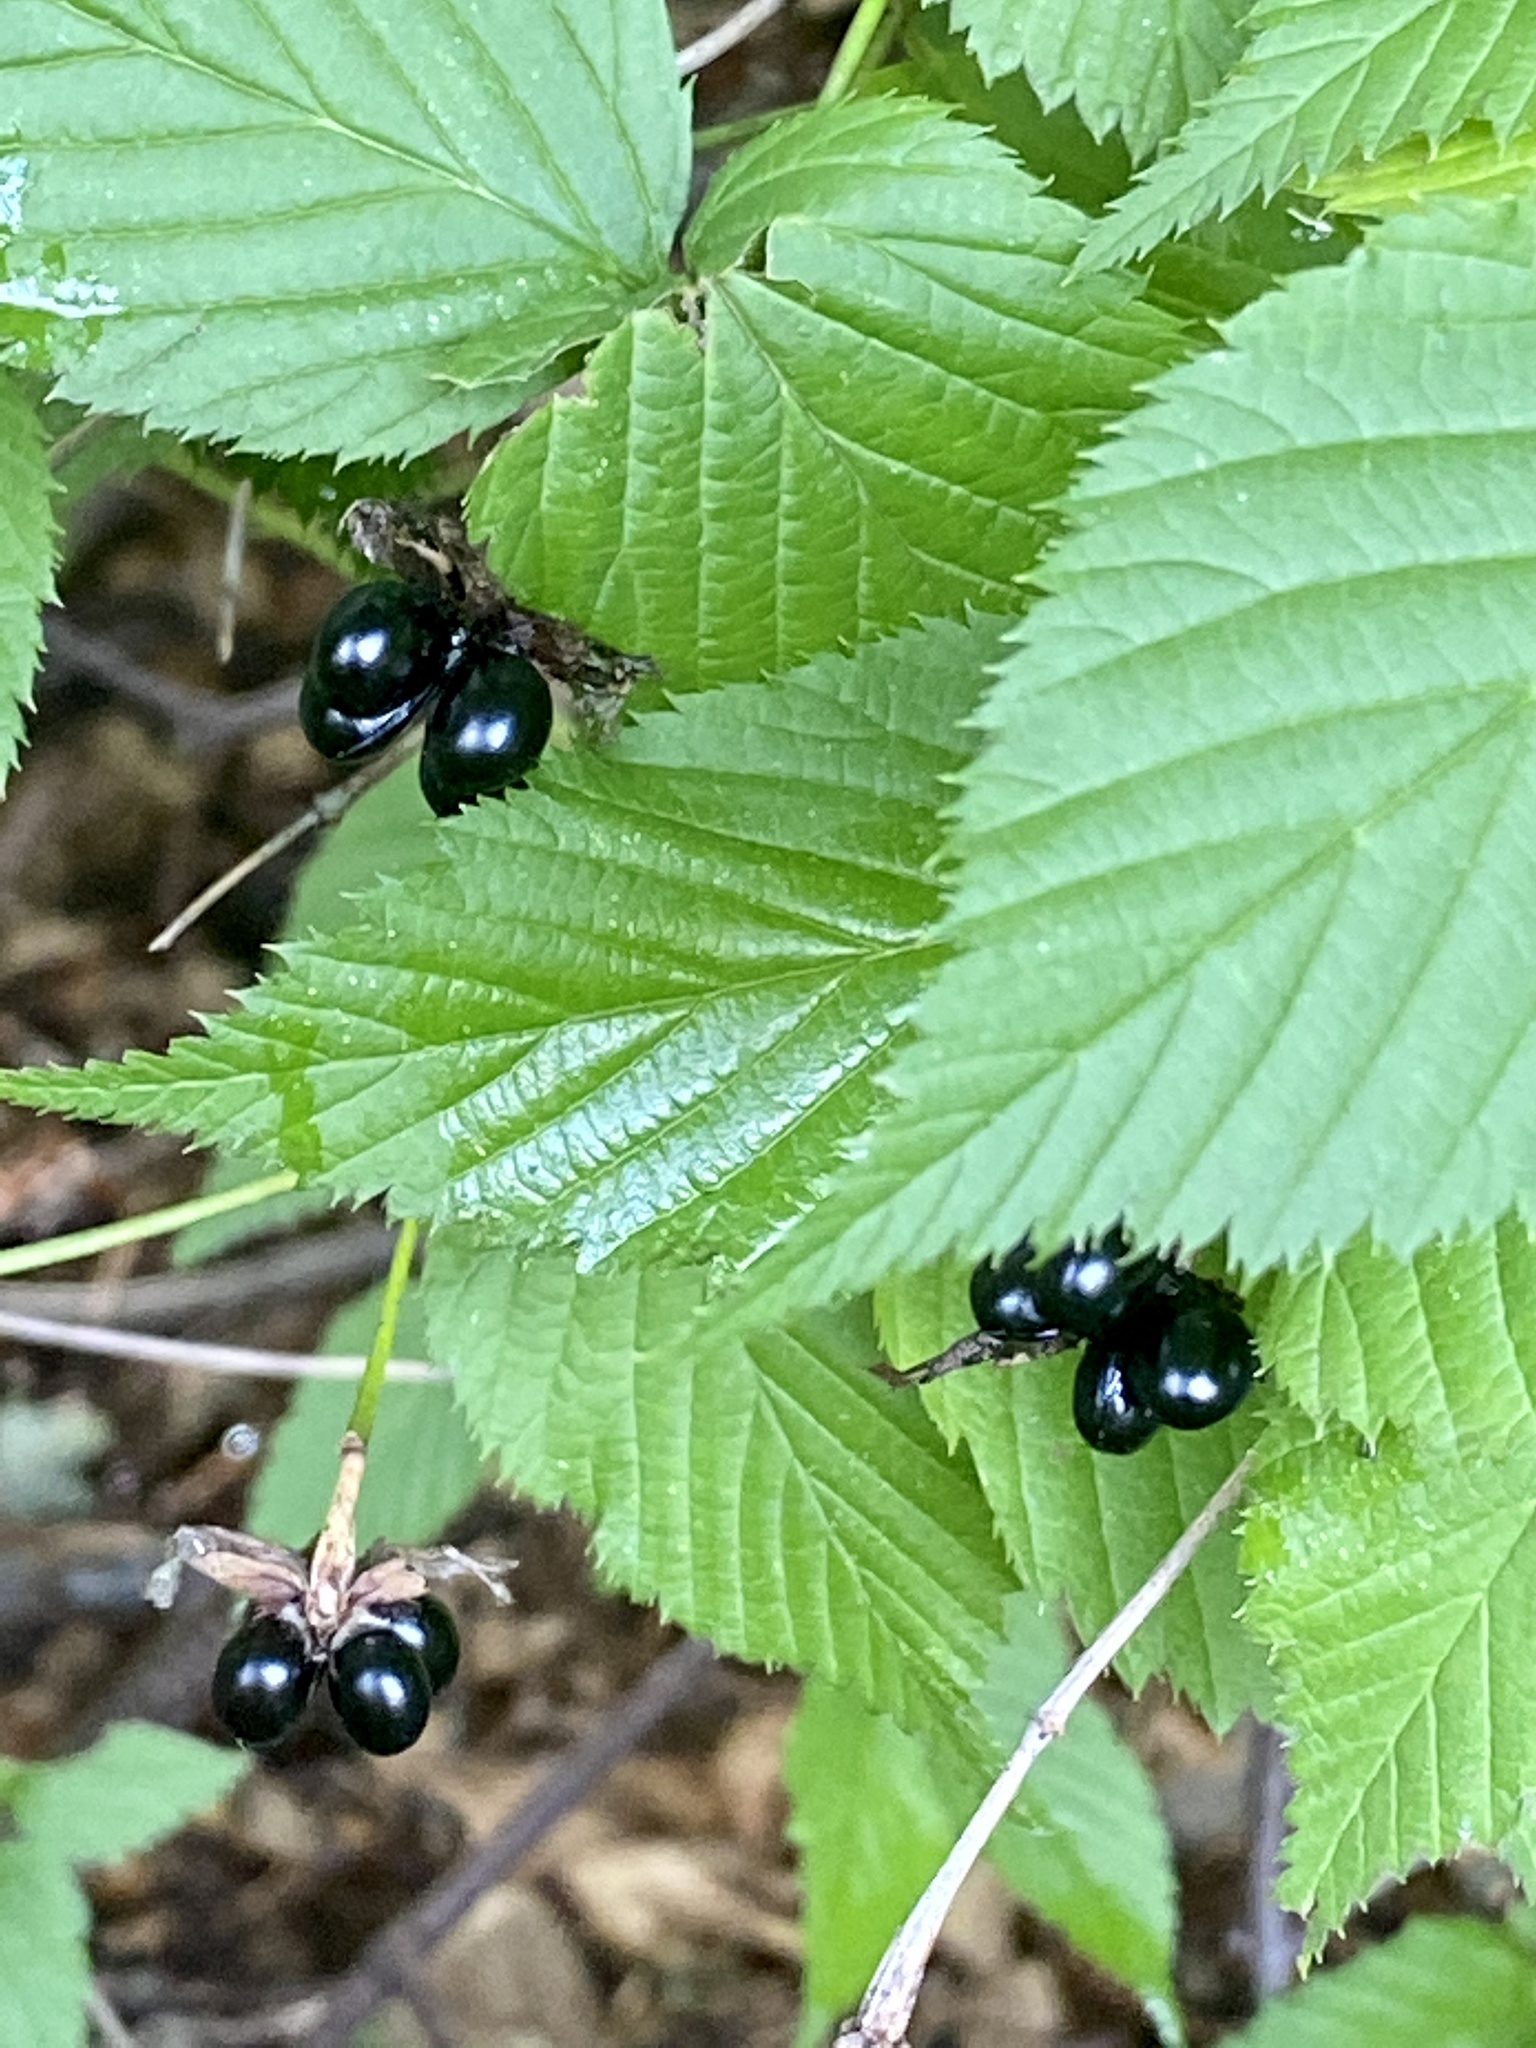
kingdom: Plantae
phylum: Tracheophyta
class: Magnoliopsida
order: Rosales
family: Rosaceae
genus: Rhodotypos
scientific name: Rhodotypos scandens
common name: Jetbead
